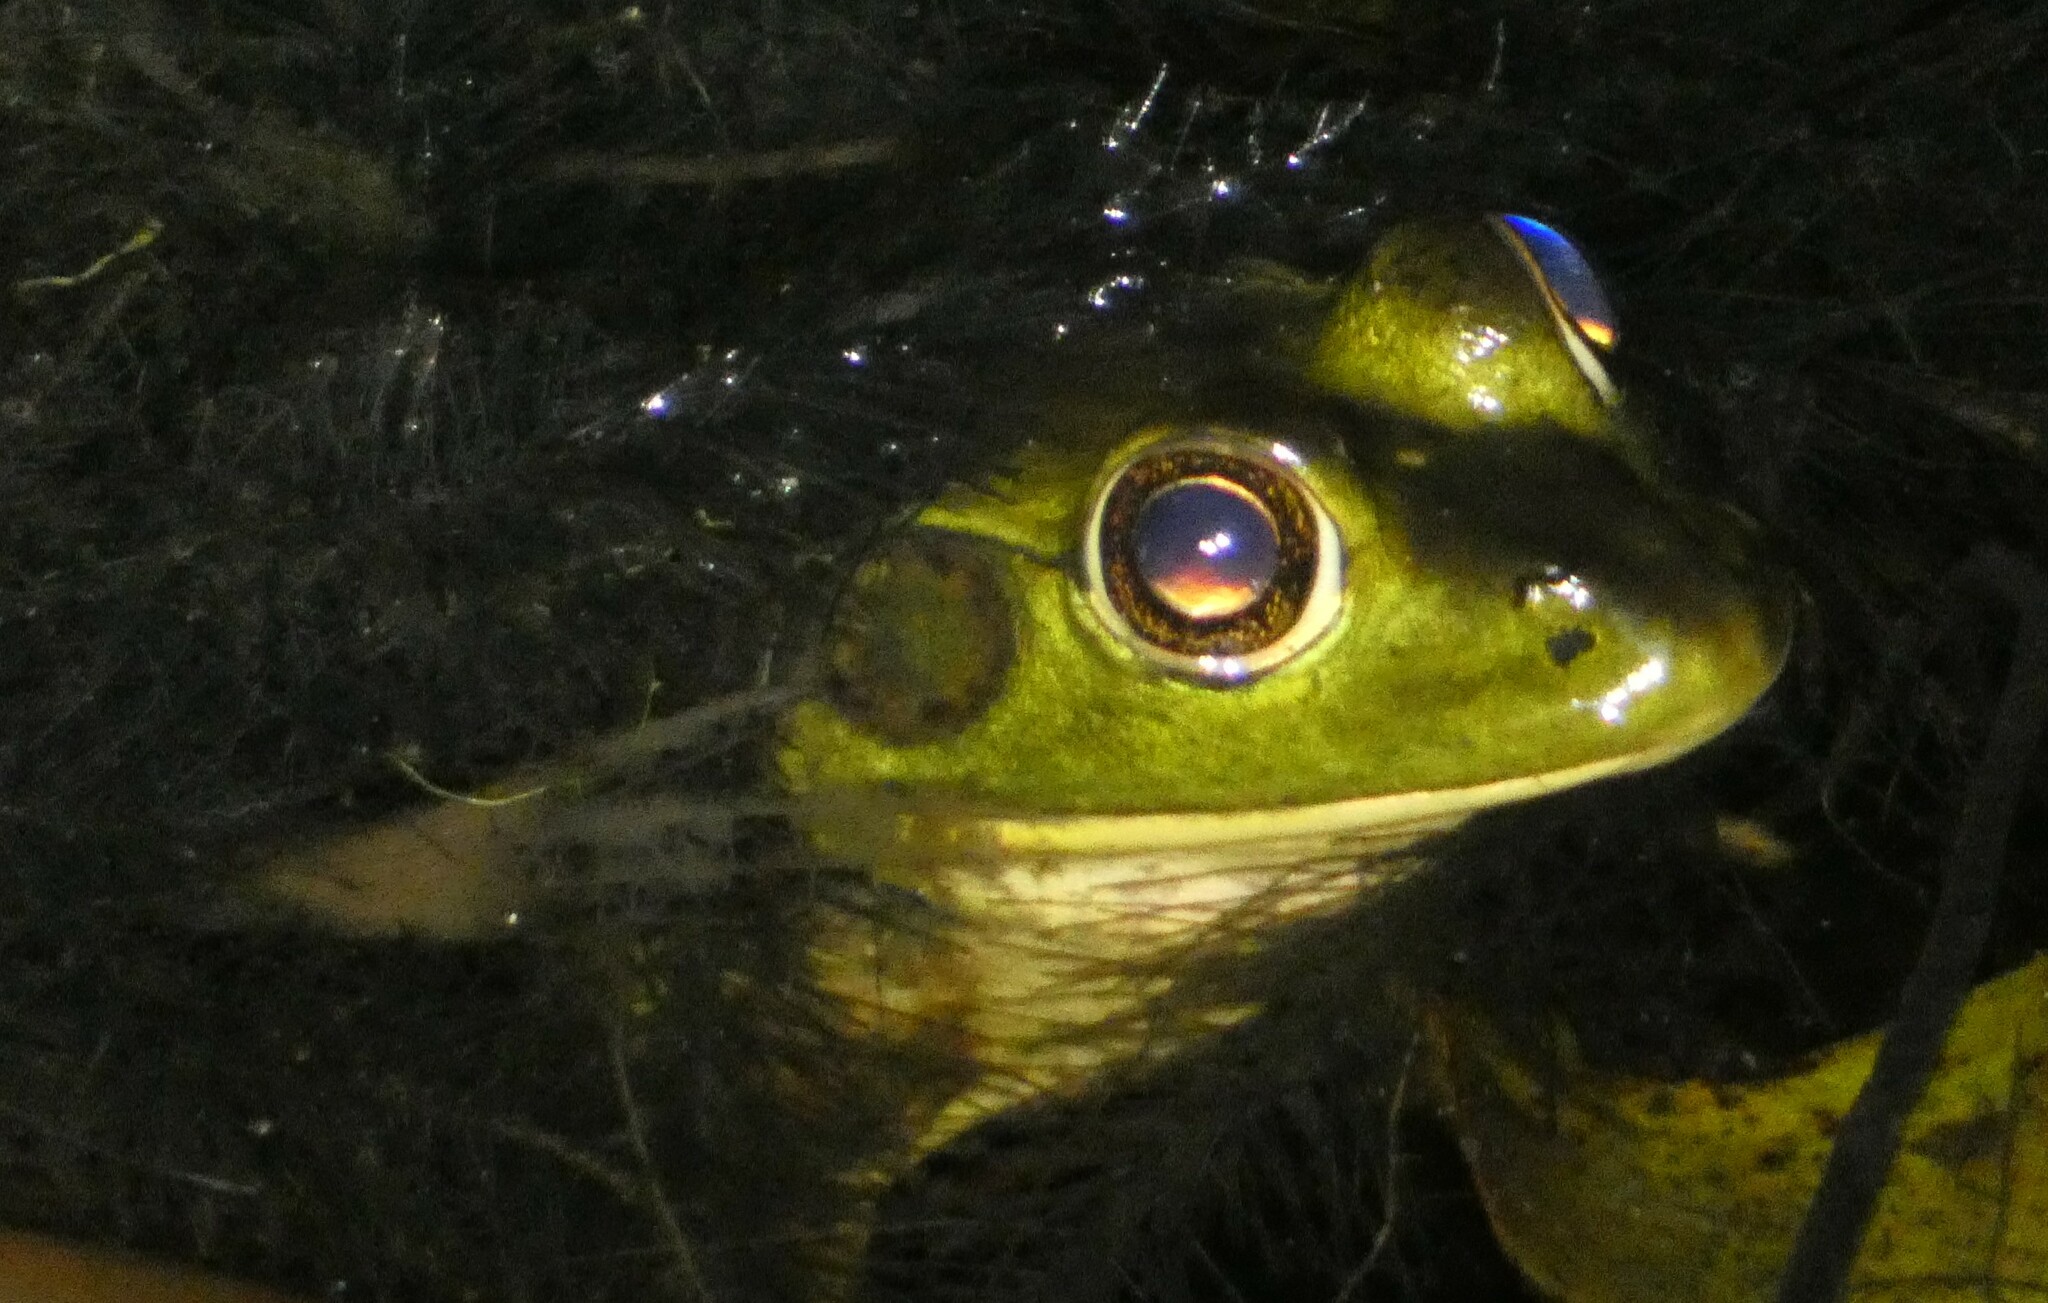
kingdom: Animalia
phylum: Chordata
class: Amphibia
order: Anura
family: Ranidae
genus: Lithobates
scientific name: Lithobates grylio
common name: Pig frog
